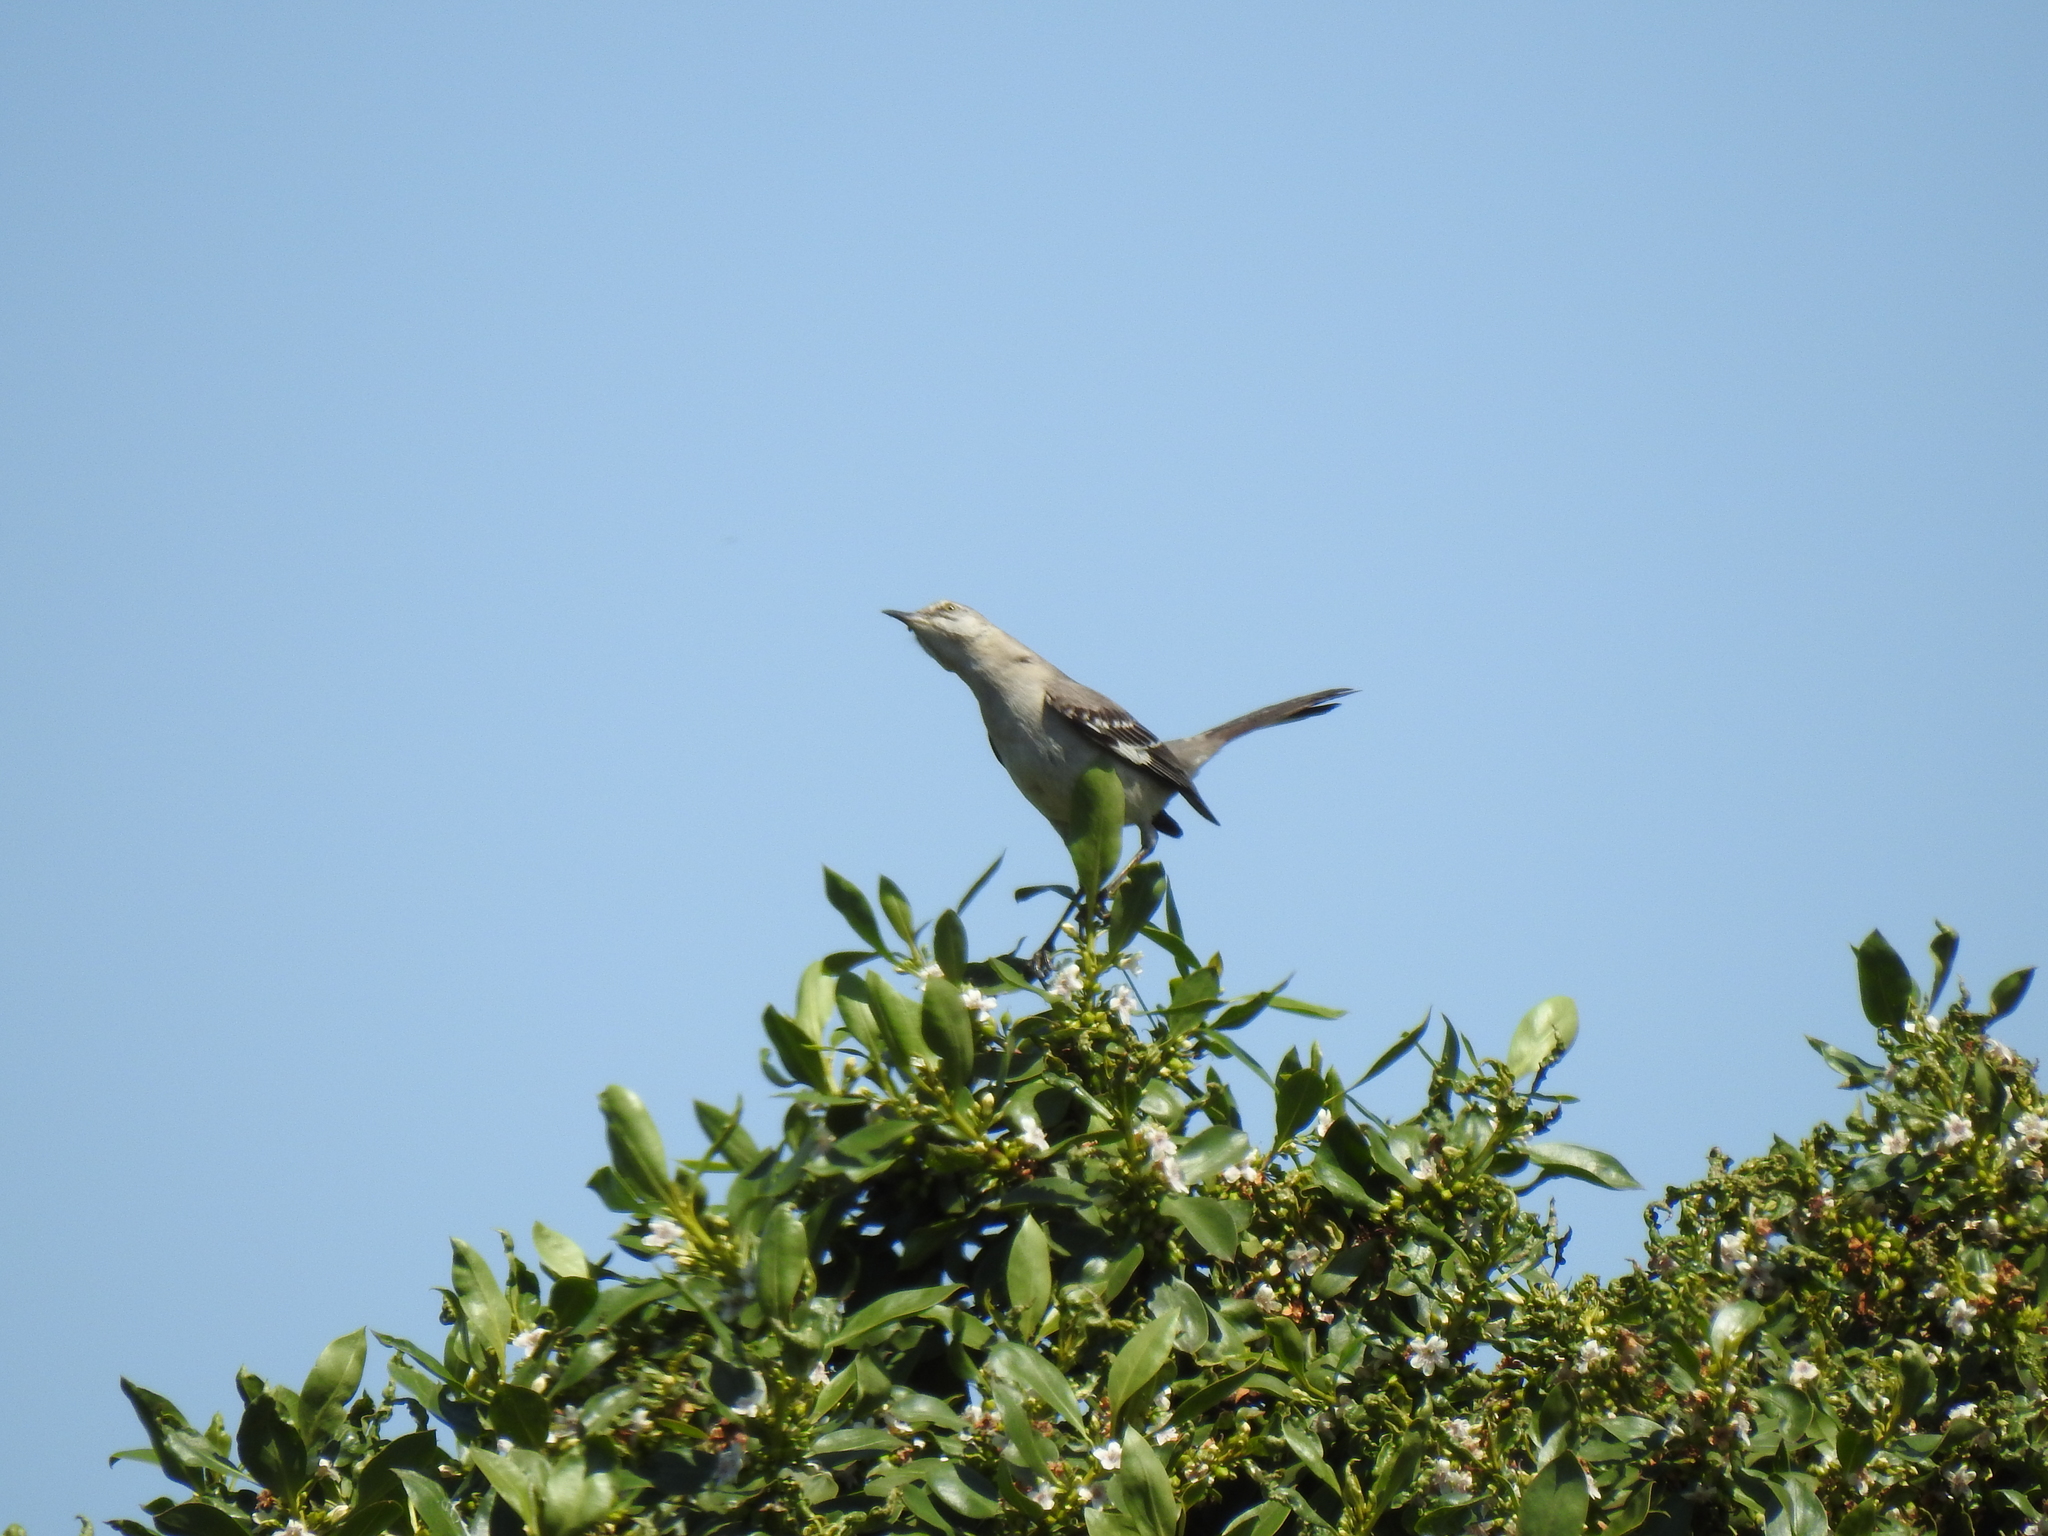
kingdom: Animalia
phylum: Chordata
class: Aves
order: Passeriformes
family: Mimidae
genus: Mimus
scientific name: Mimus polyglottos
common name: Northern mockingbird
